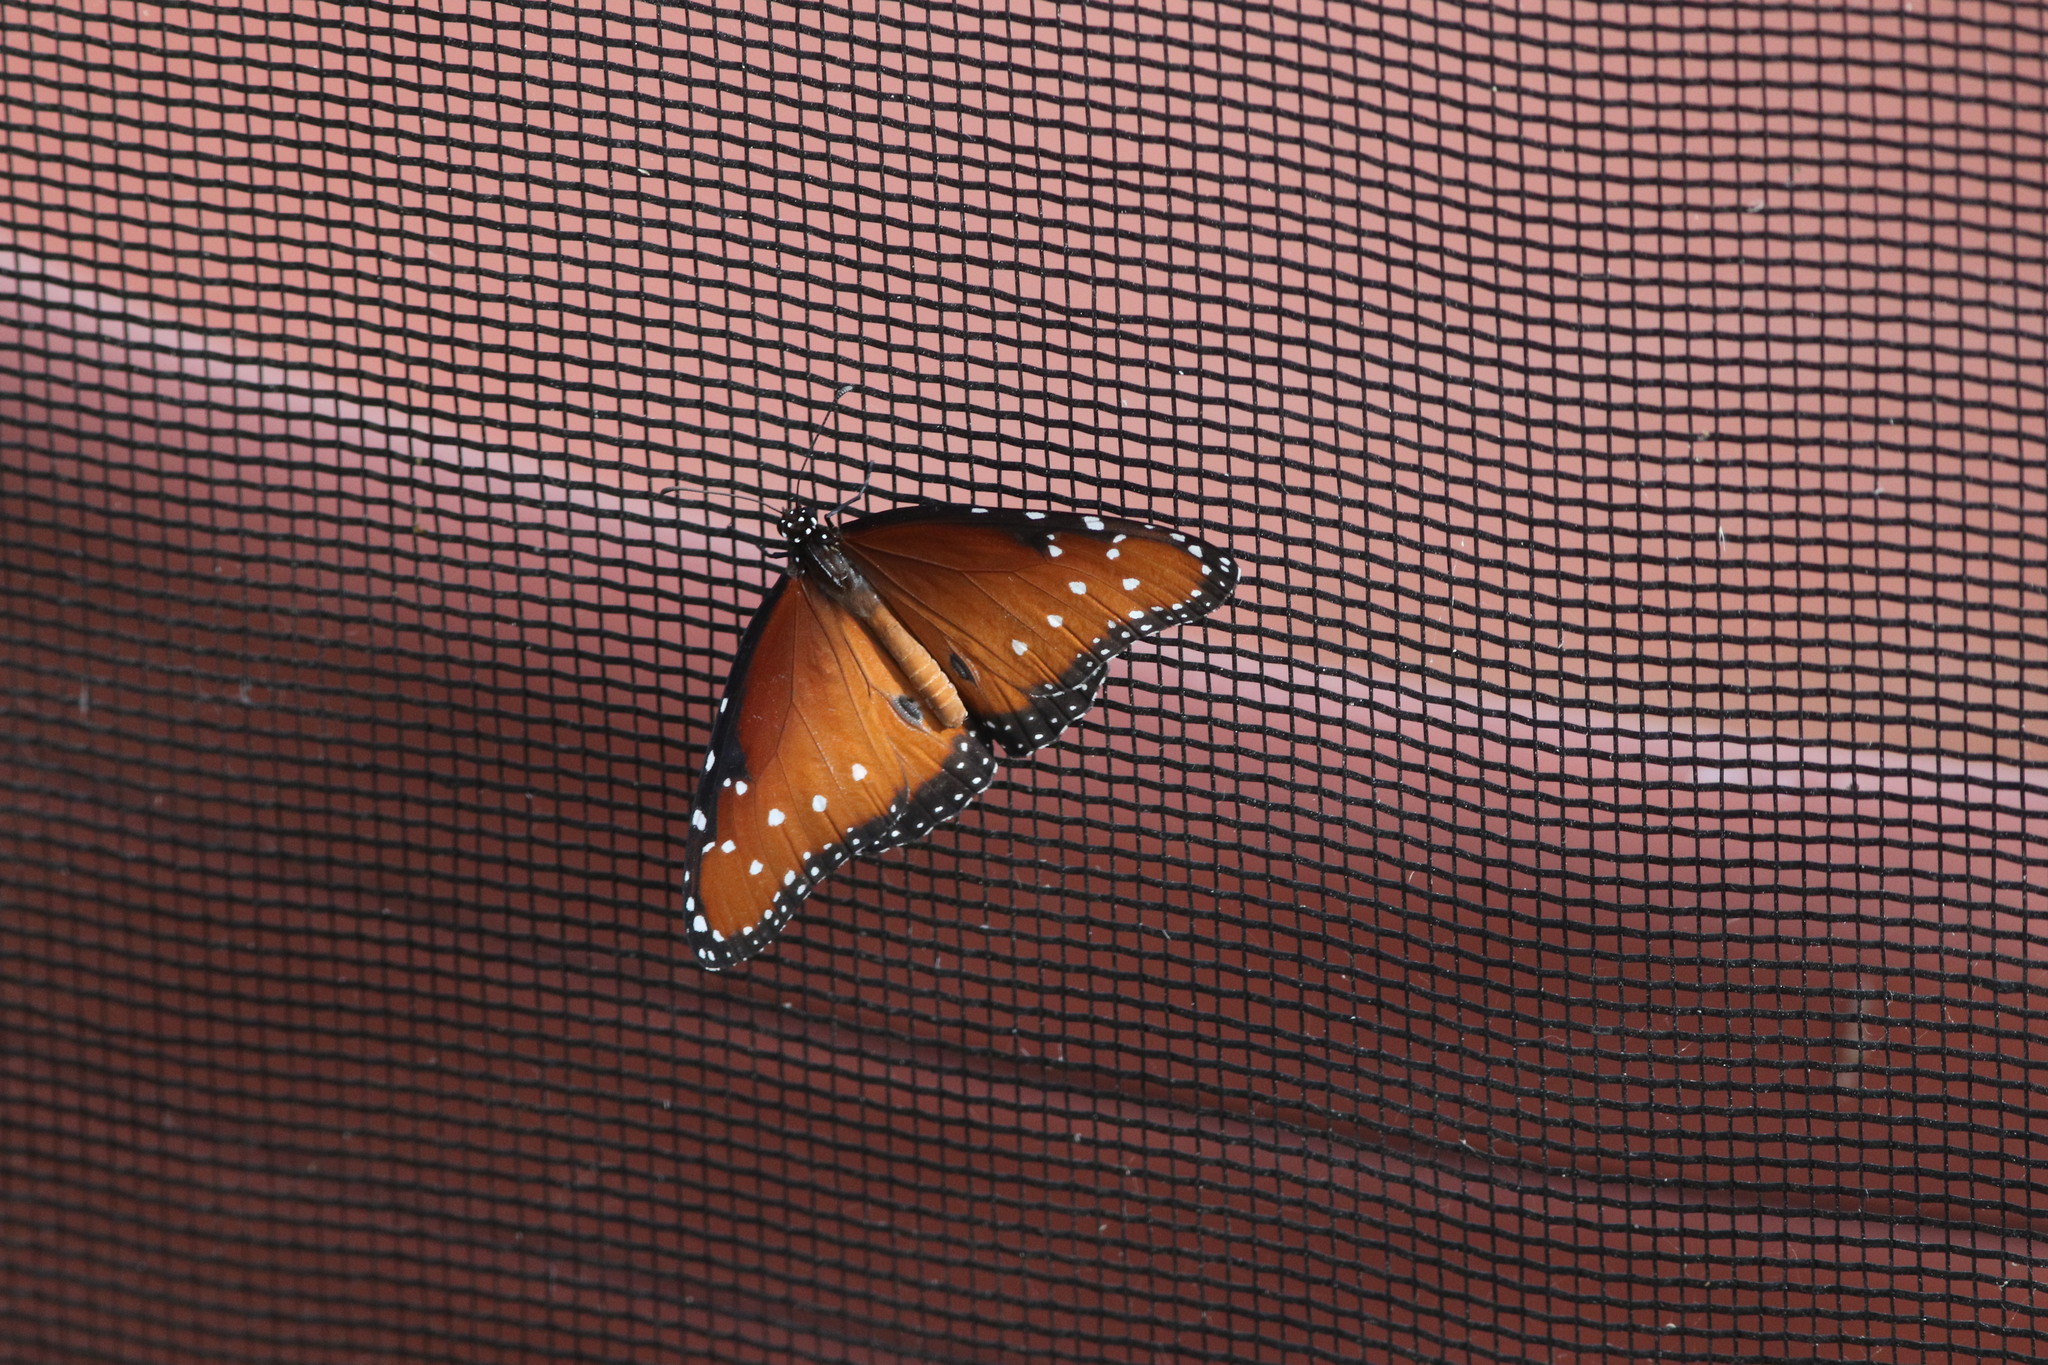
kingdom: Animalia
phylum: Arthropoda
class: Insecta
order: Lepidoptera
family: Nymphalidae
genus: Danaus
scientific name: Danaus gilippus
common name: Queen
